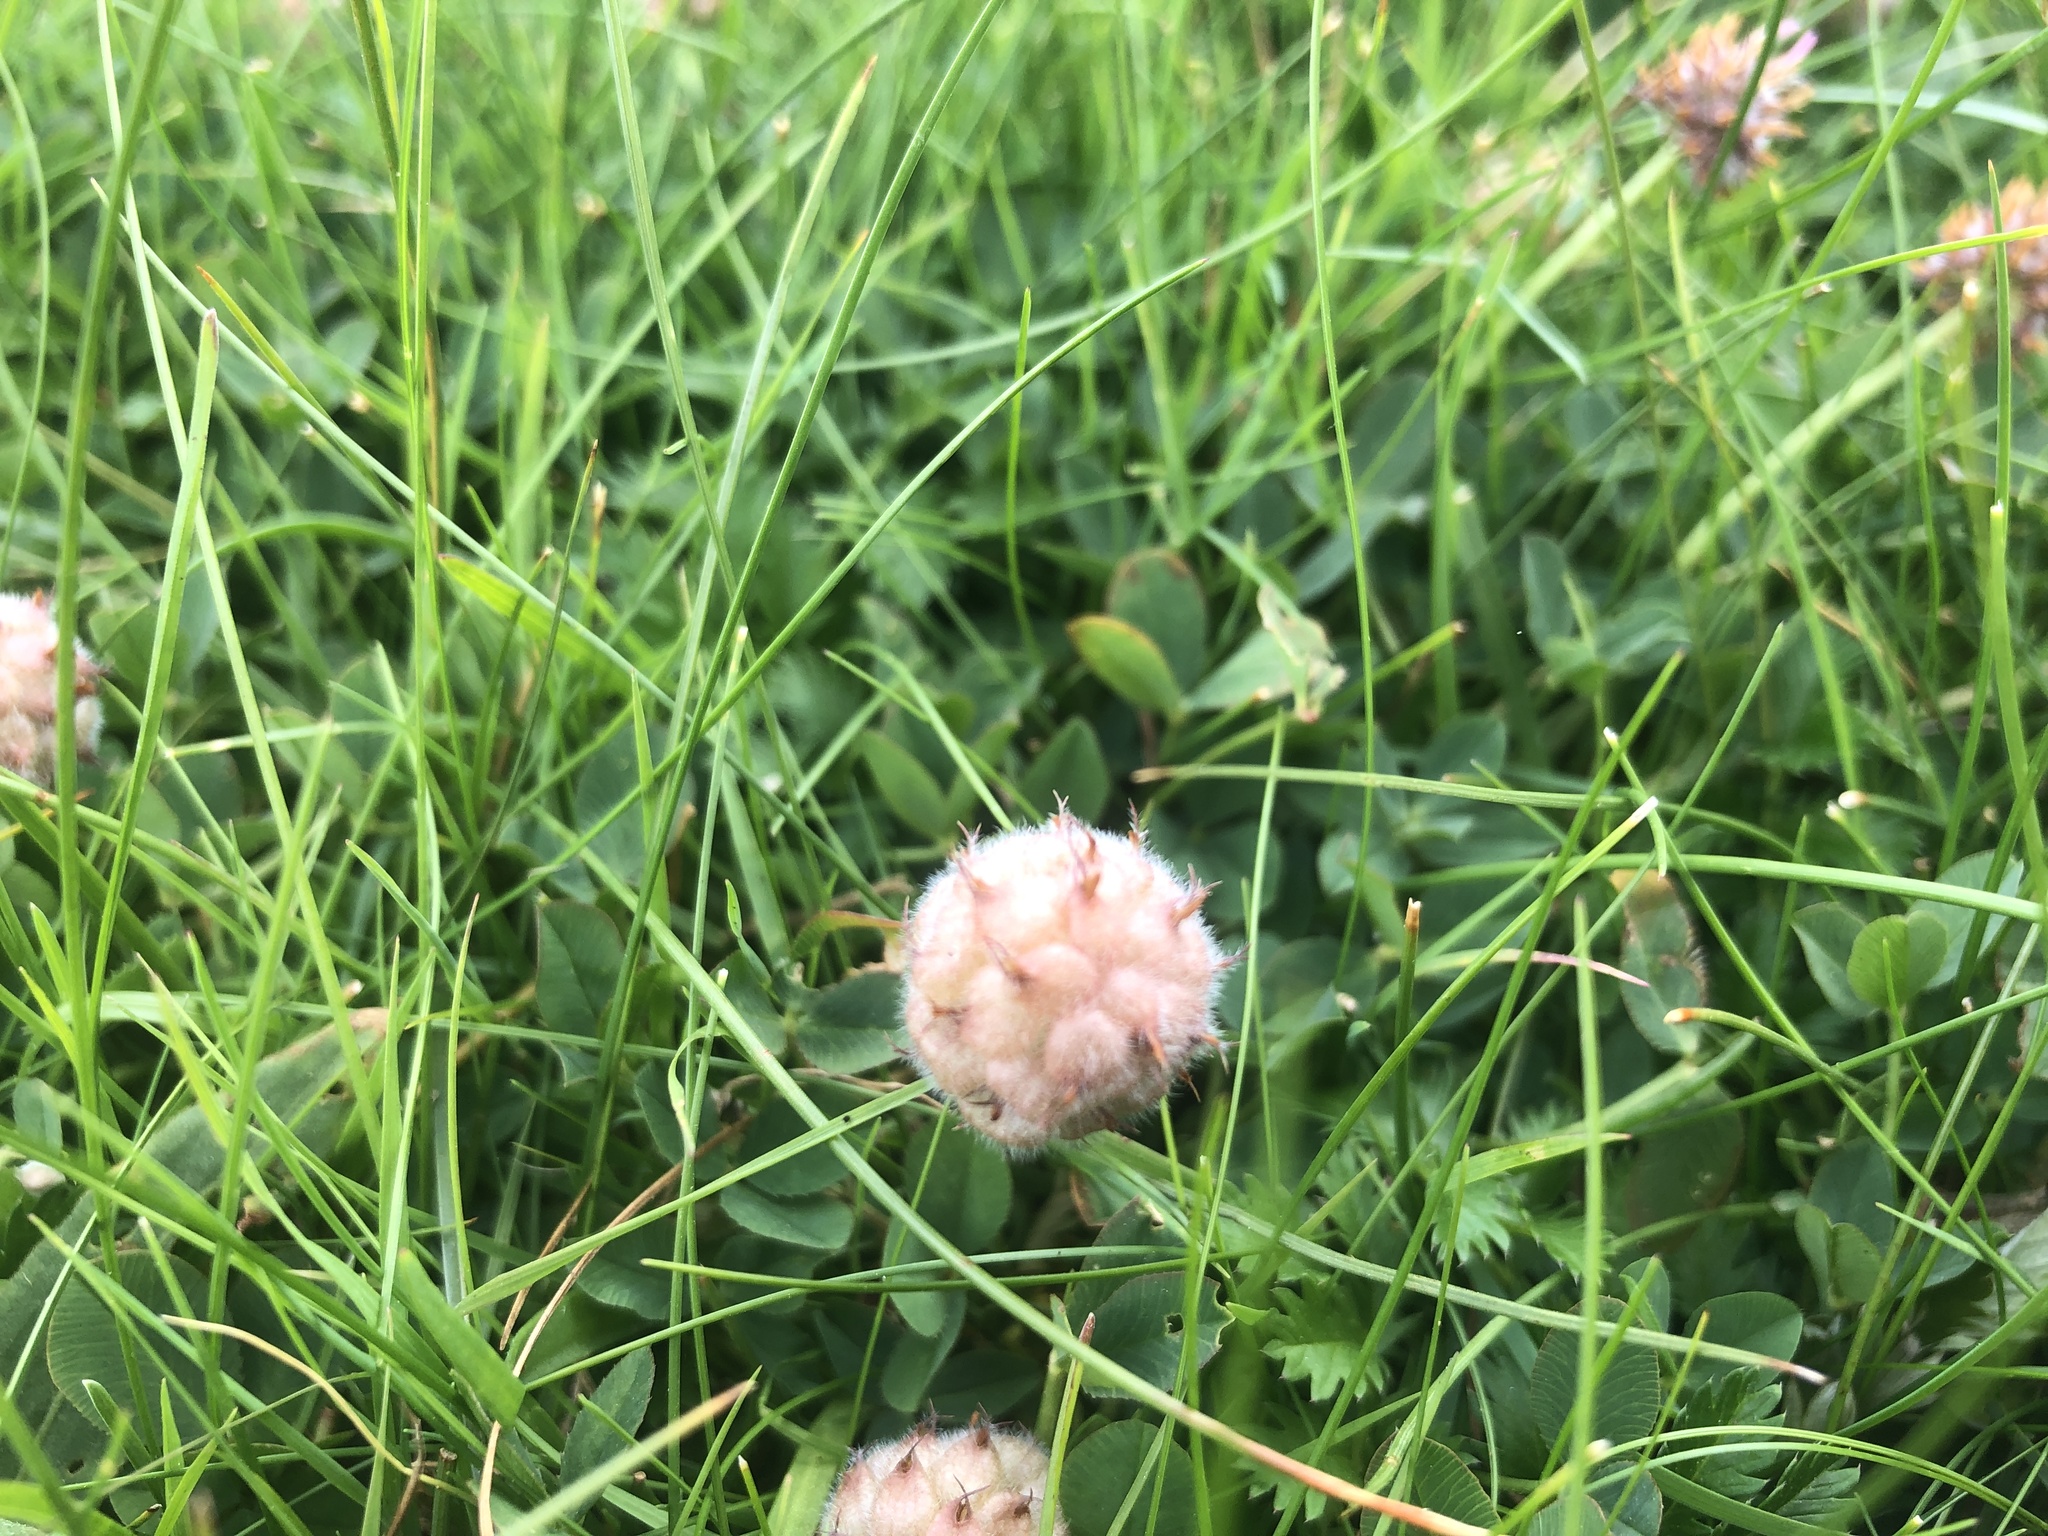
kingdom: Plantae
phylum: Tracheophyta
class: Magnoliopsida
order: Fabales
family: Fabaceae
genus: Trifolium
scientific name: Trifolium fragiferum
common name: Strawberry clover
